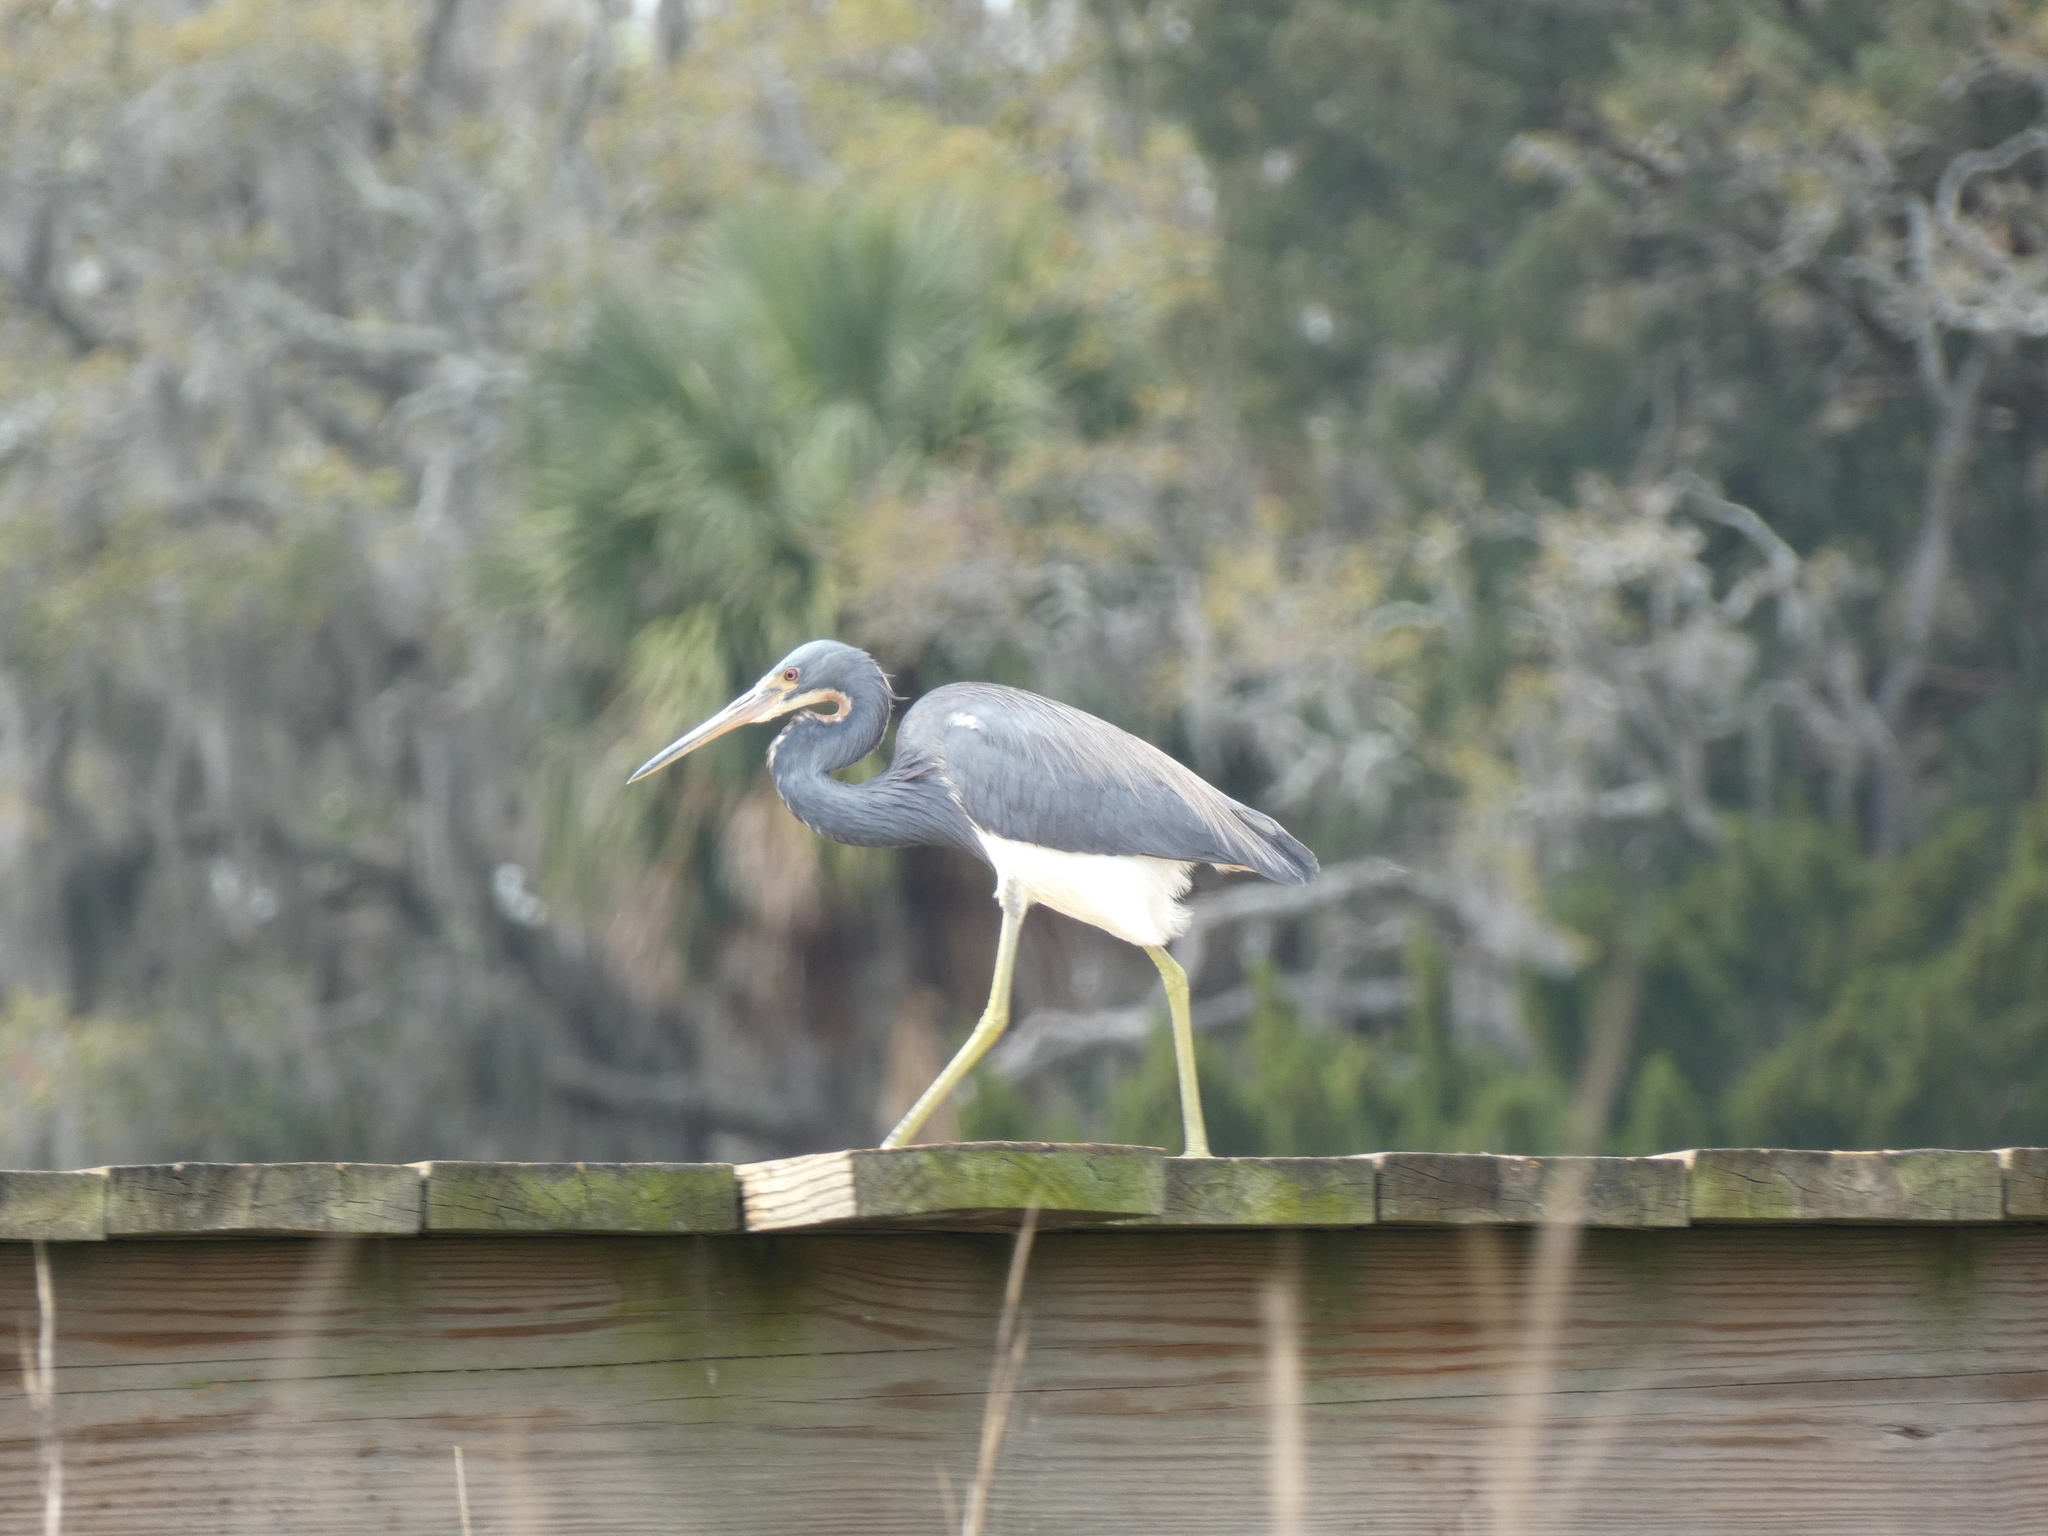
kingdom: Animalia
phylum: Chordata
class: Aves
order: Pelecaniformes
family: Ardeidae
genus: Egretta
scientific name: Egretta tricolor
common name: Tricolored heron
